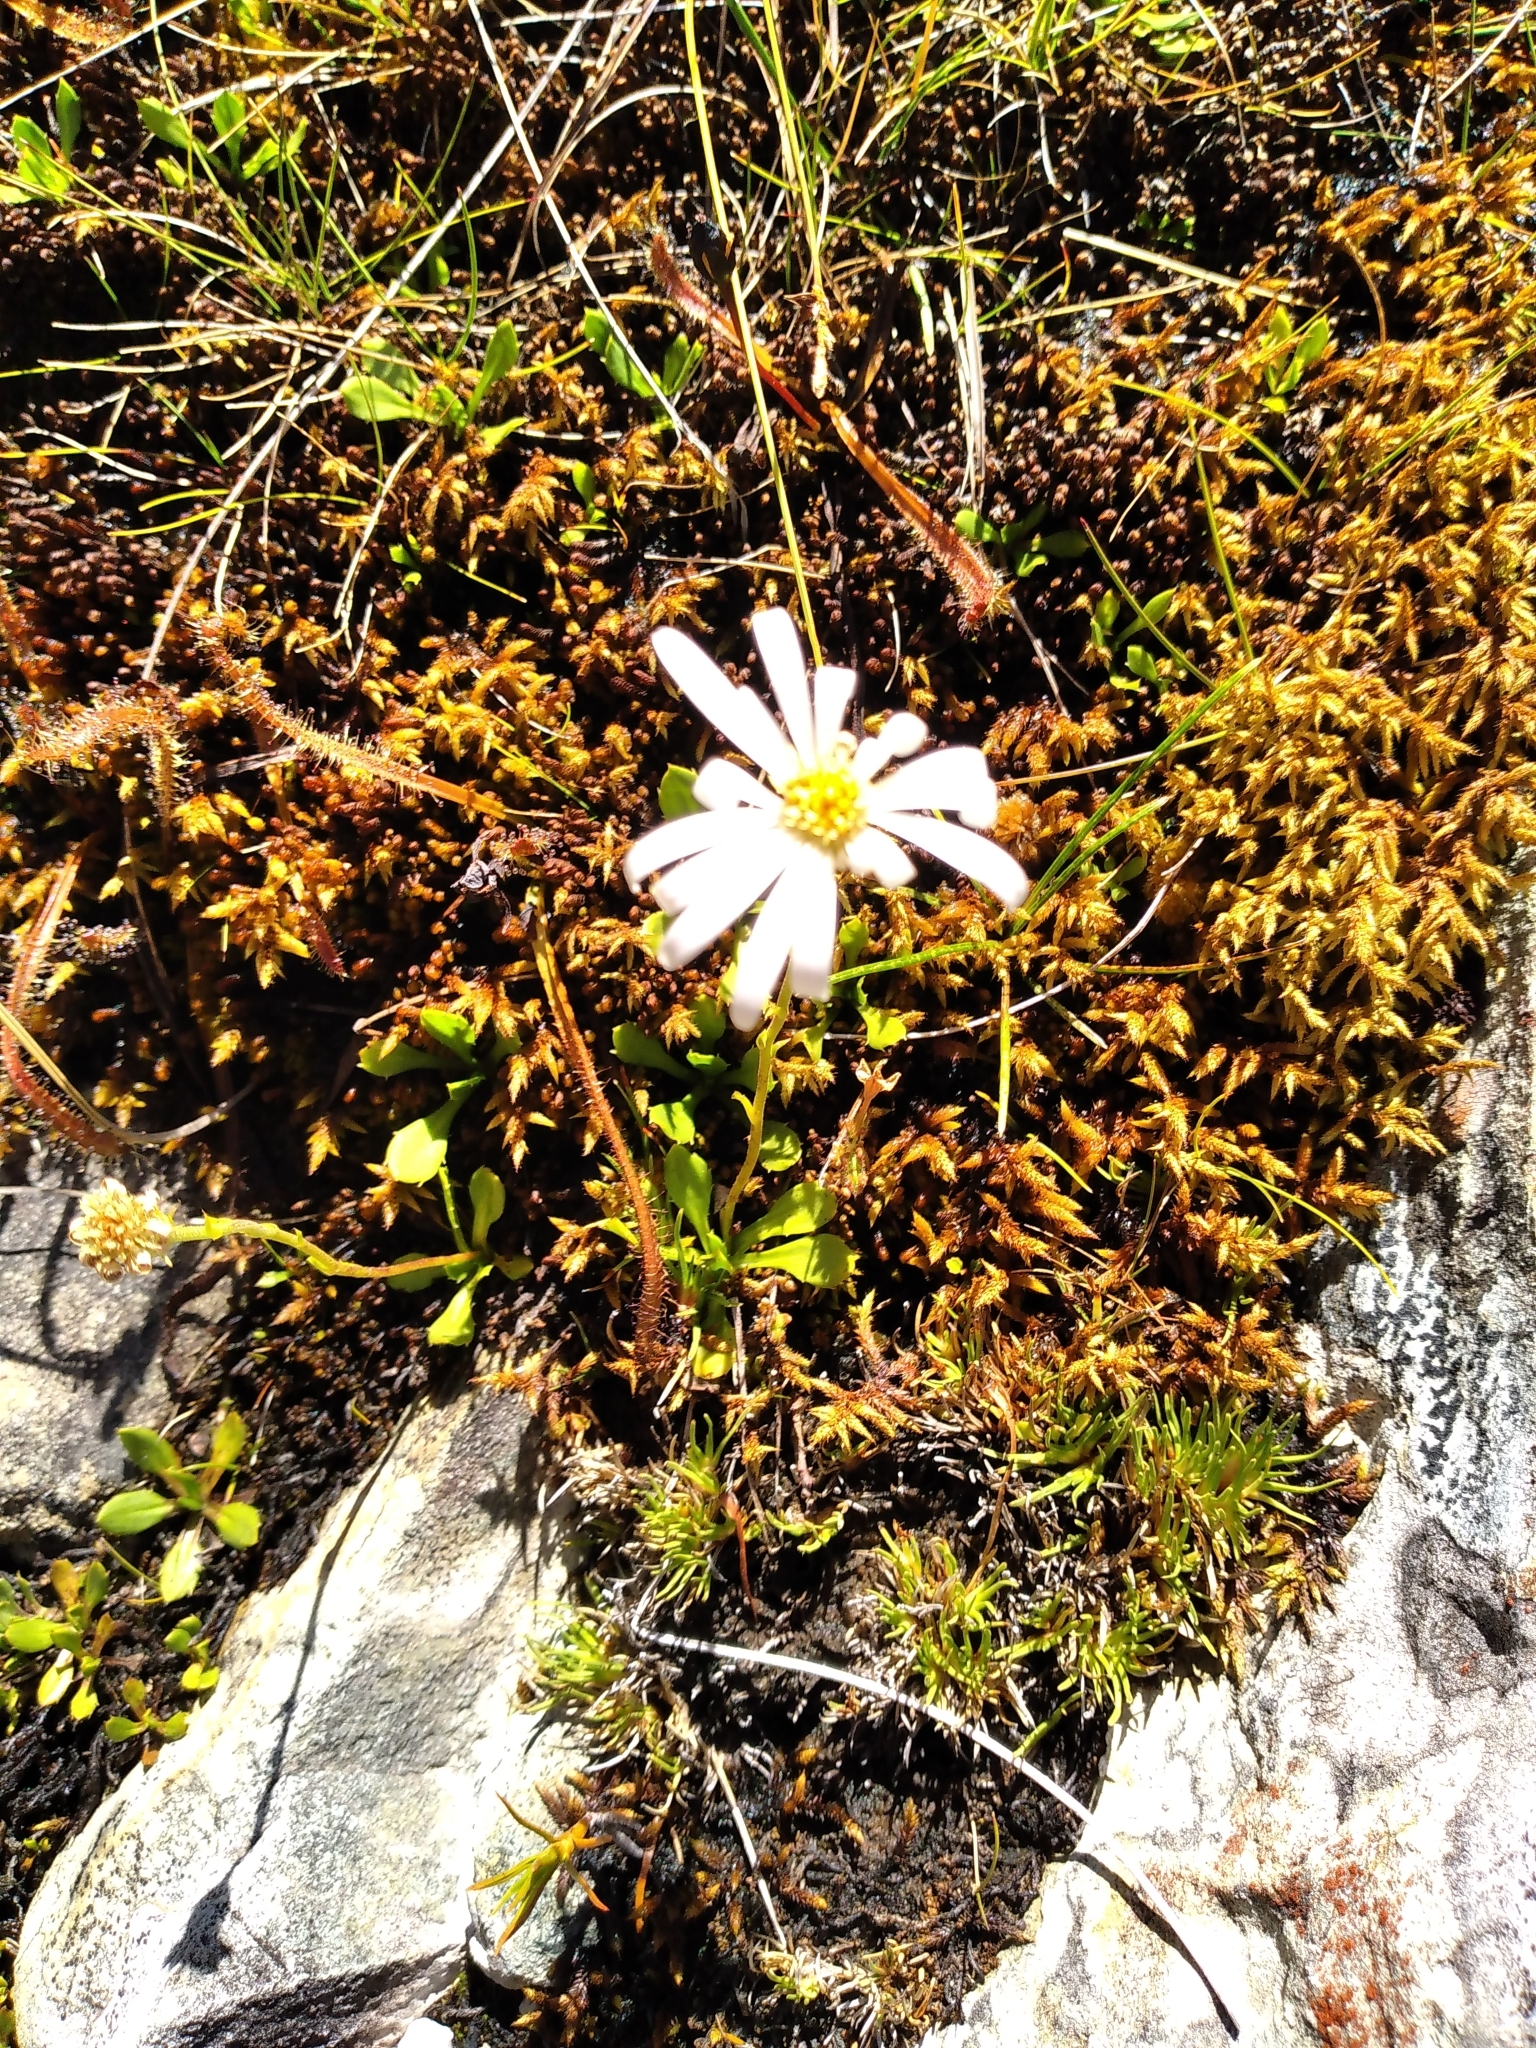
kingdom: Plantae
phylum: Tracheophyta
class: Magnoliopsida
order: Asterales
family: Asteraceae
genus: Celmisia
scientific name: Celmisia glandulosa
